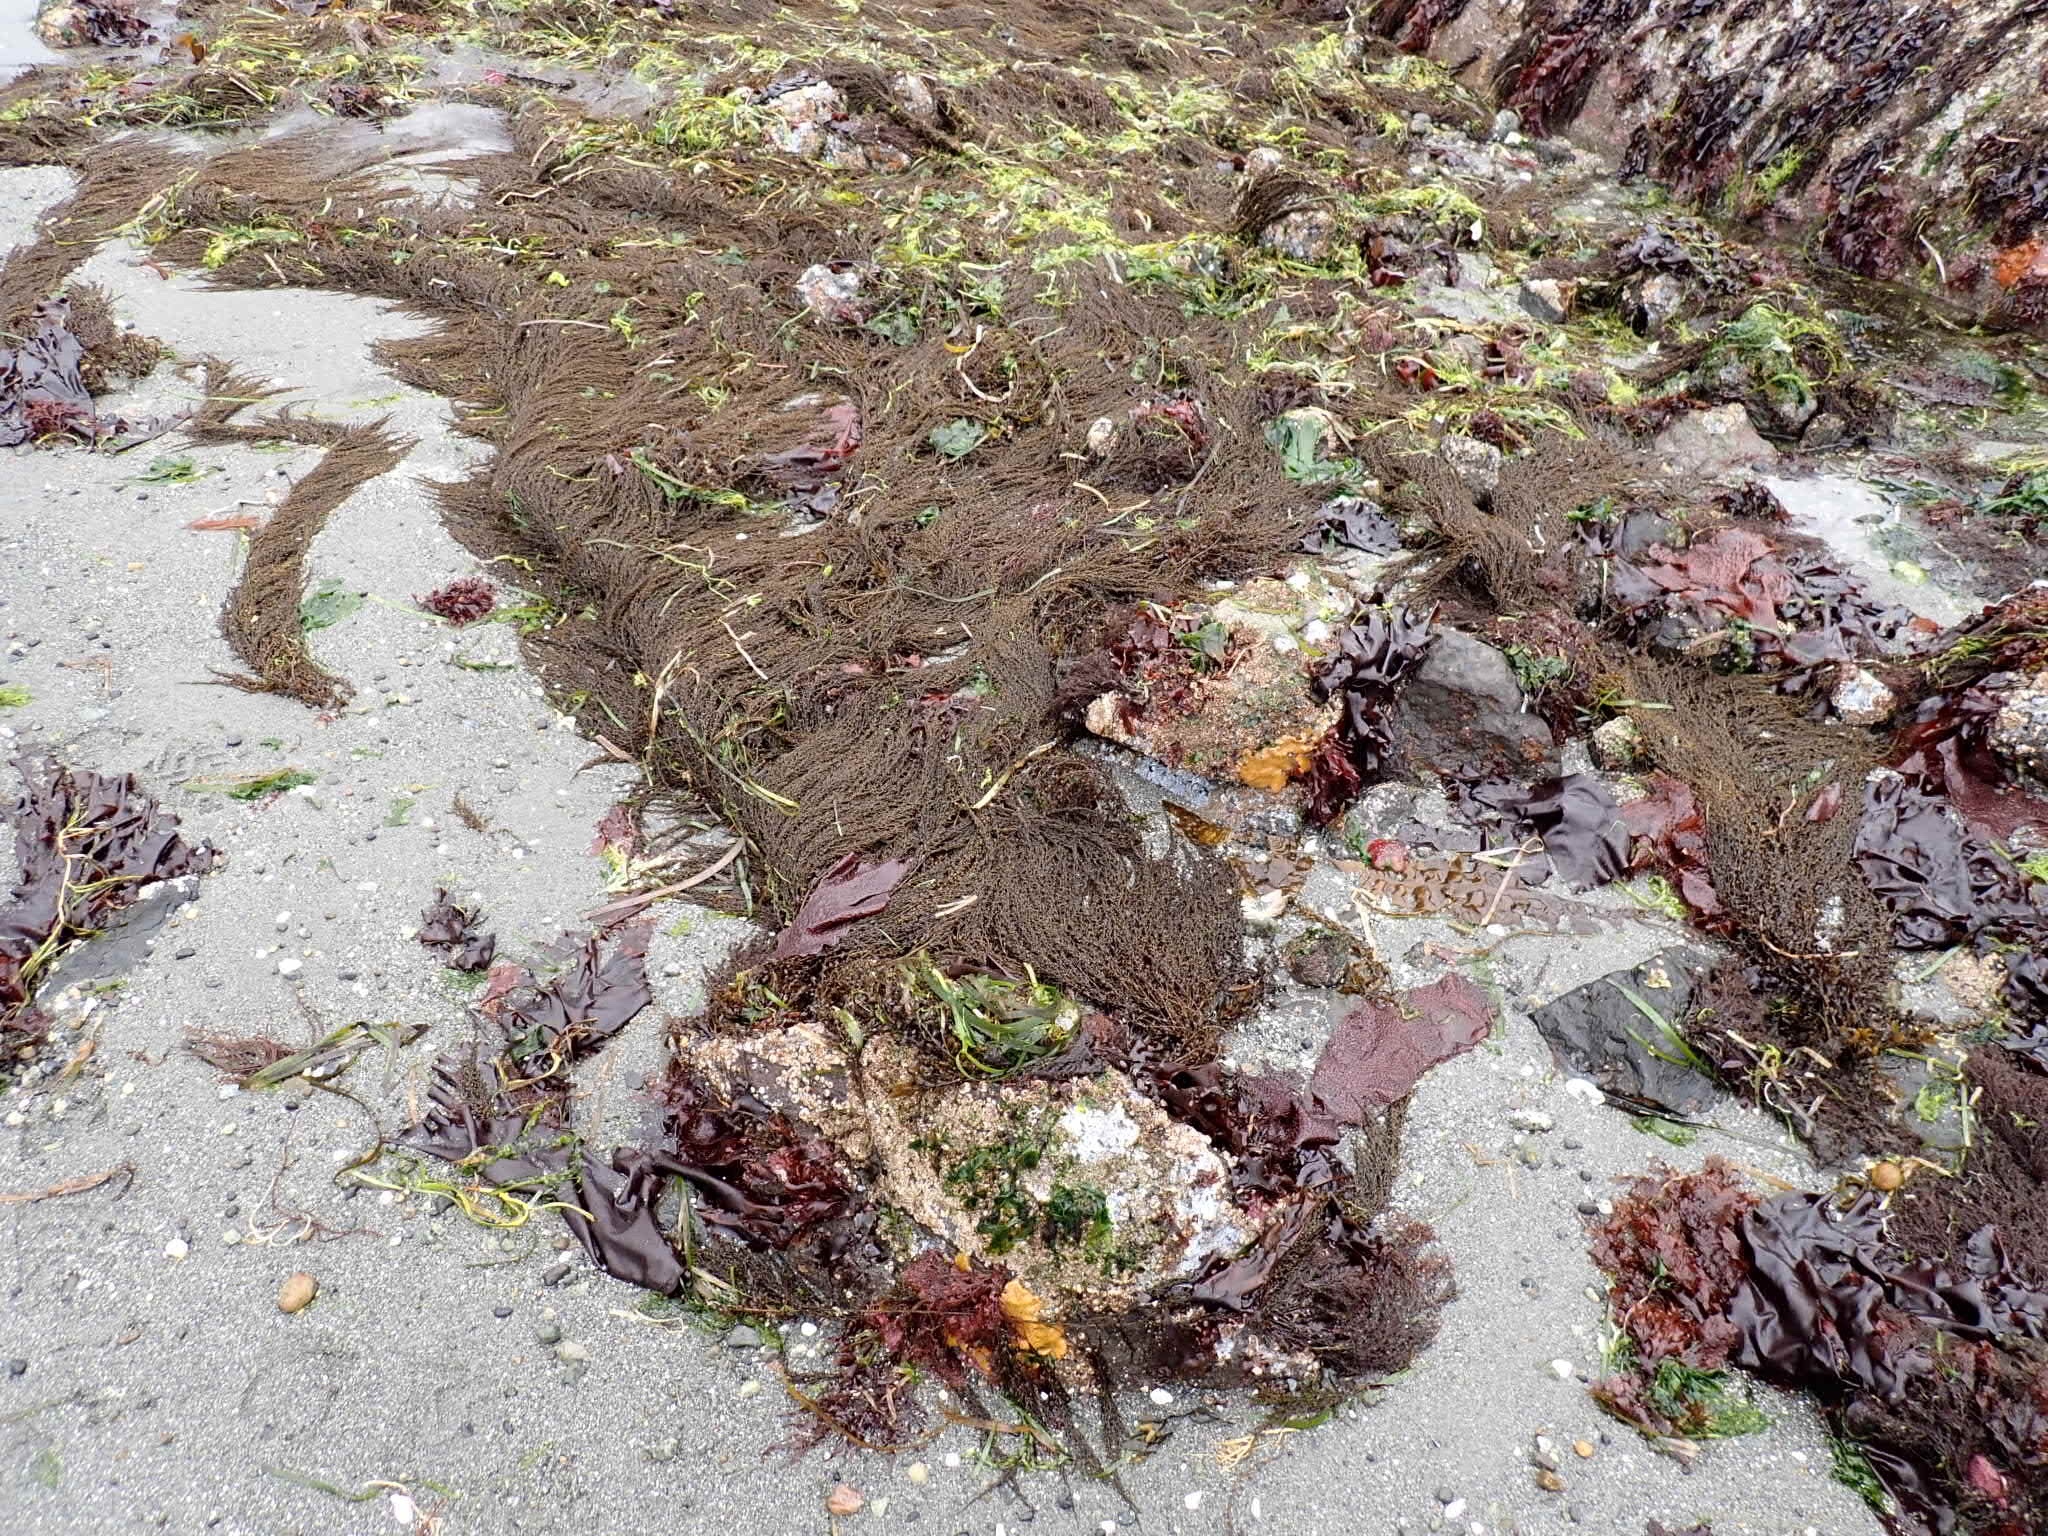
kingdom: Chromista
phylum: Ochrophyta
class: Phaeophyceae
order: Fucales
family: Sargassaceae
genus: Sargassum
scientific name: Sargassum muticum
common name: Japweed
